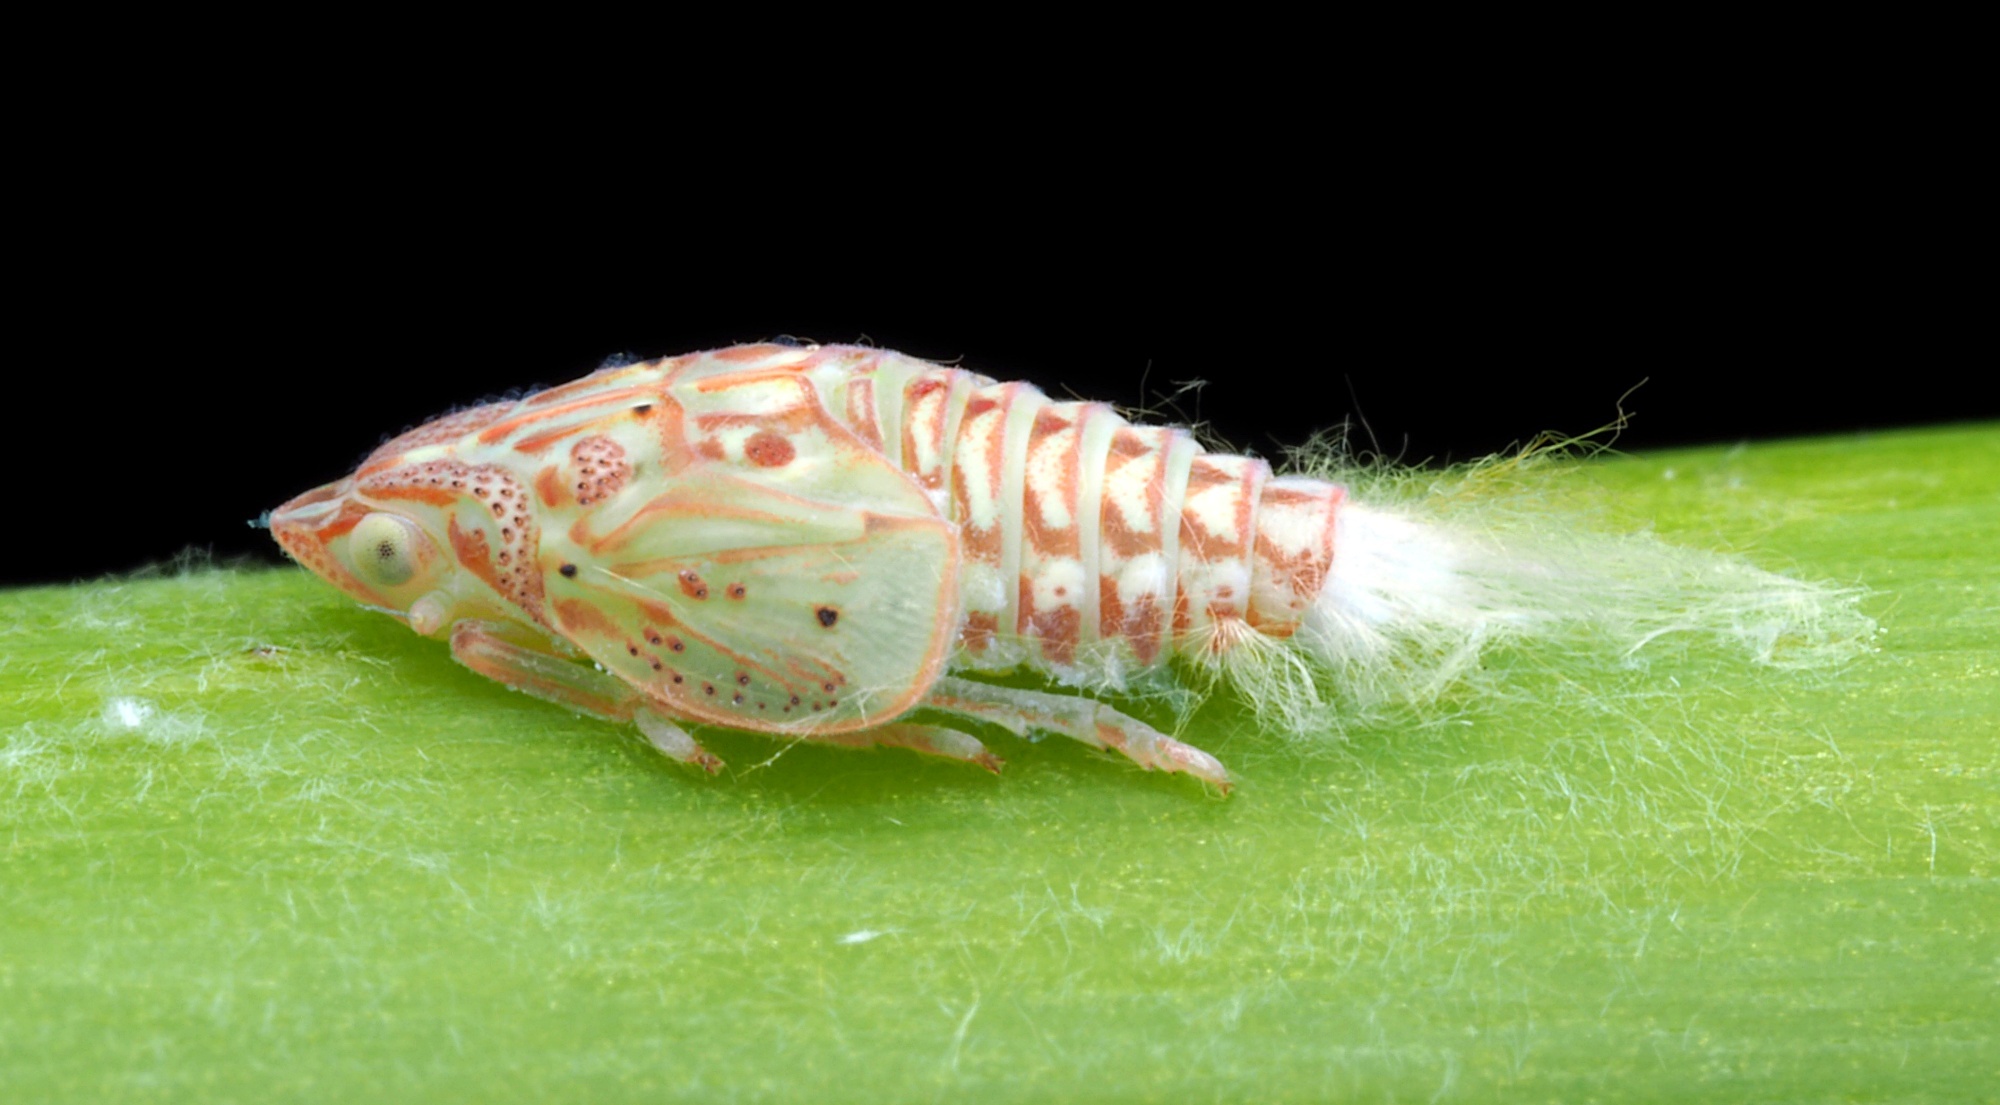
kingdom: Animalia
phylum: Arthropoda
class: Insecta
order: Hemiptera
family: Flatidae
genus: Siphanta
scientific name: Siphanta acuta
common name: Torpedo bug
